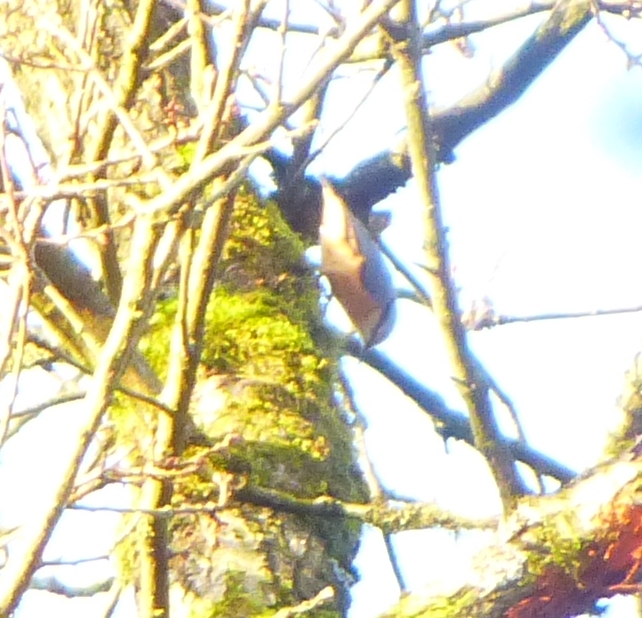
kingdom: Animalia
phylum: Chordata
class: Aves
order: Passeriformes
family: Sittidae
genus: Sitta
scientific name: Sitta europaea
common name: Eurasian nuthatch
